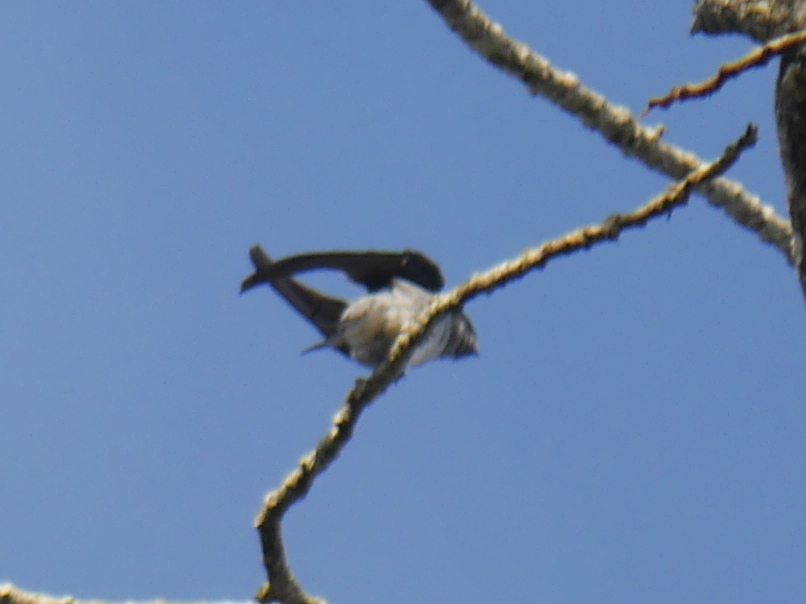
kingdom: Animalia
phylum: Chordata
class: Aves
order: Apodiformes
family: Hemiprocnidae
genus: Hemiprocne
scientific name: Hemiprocne longipennis
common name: Grey-rumped treeswift
